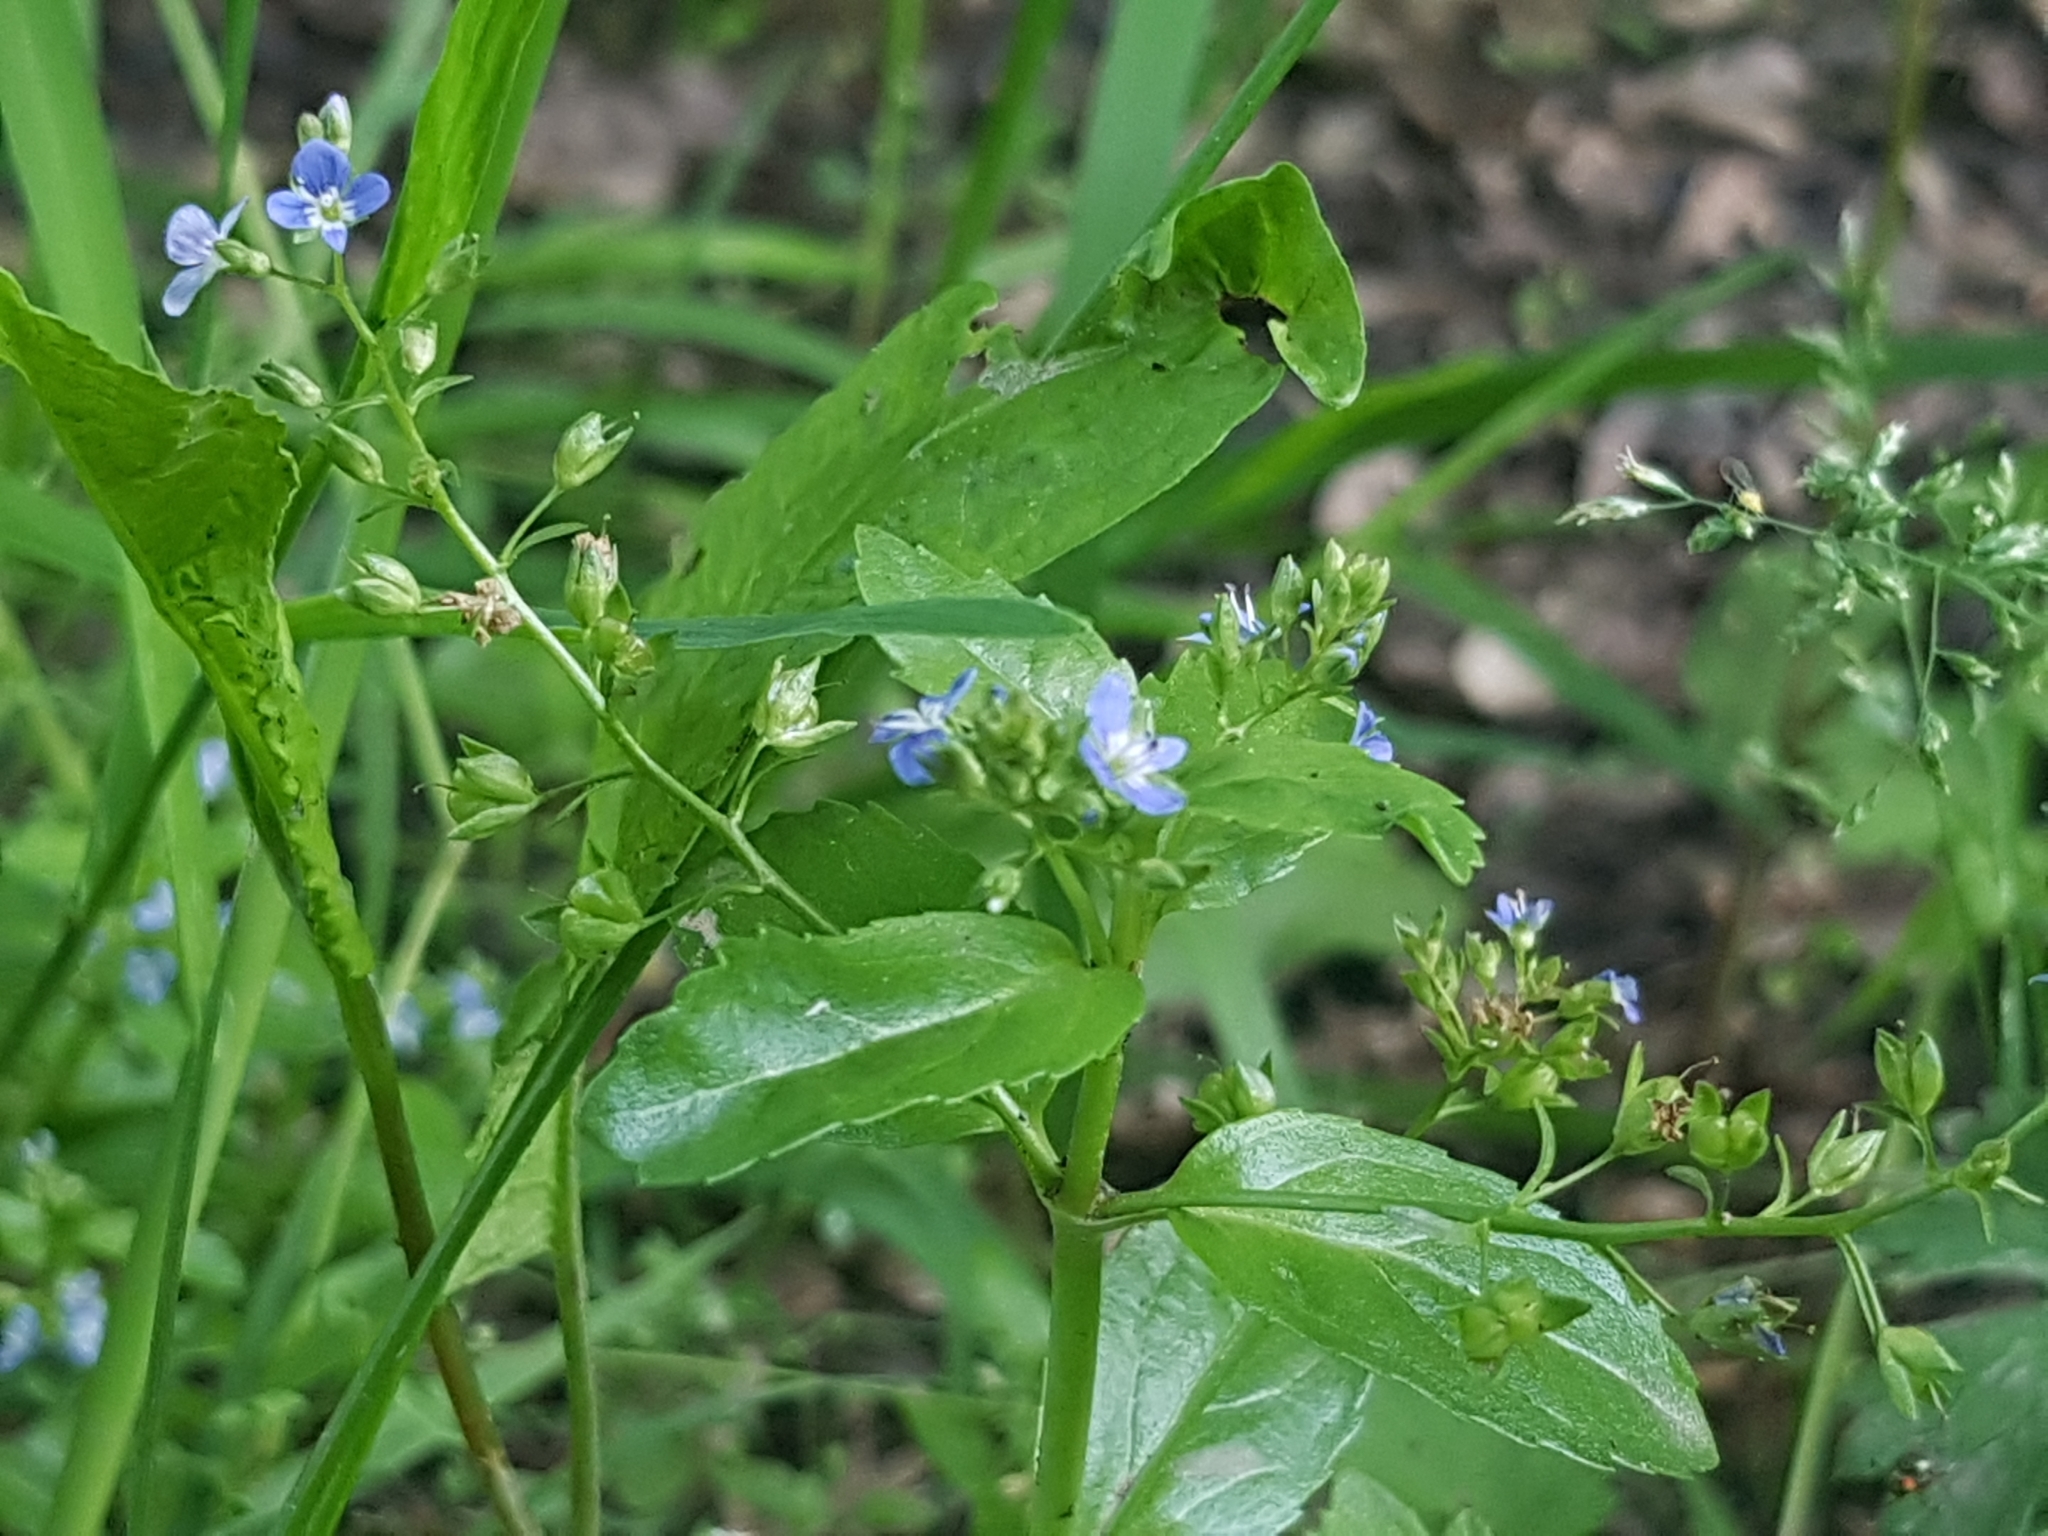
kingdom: Plantae
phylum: Tracheophyta
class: Magnoliopsida
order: Lamiales
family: Plantaginaceae
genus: Veronica
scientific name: Veronica beccabunga
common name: Brooklime
